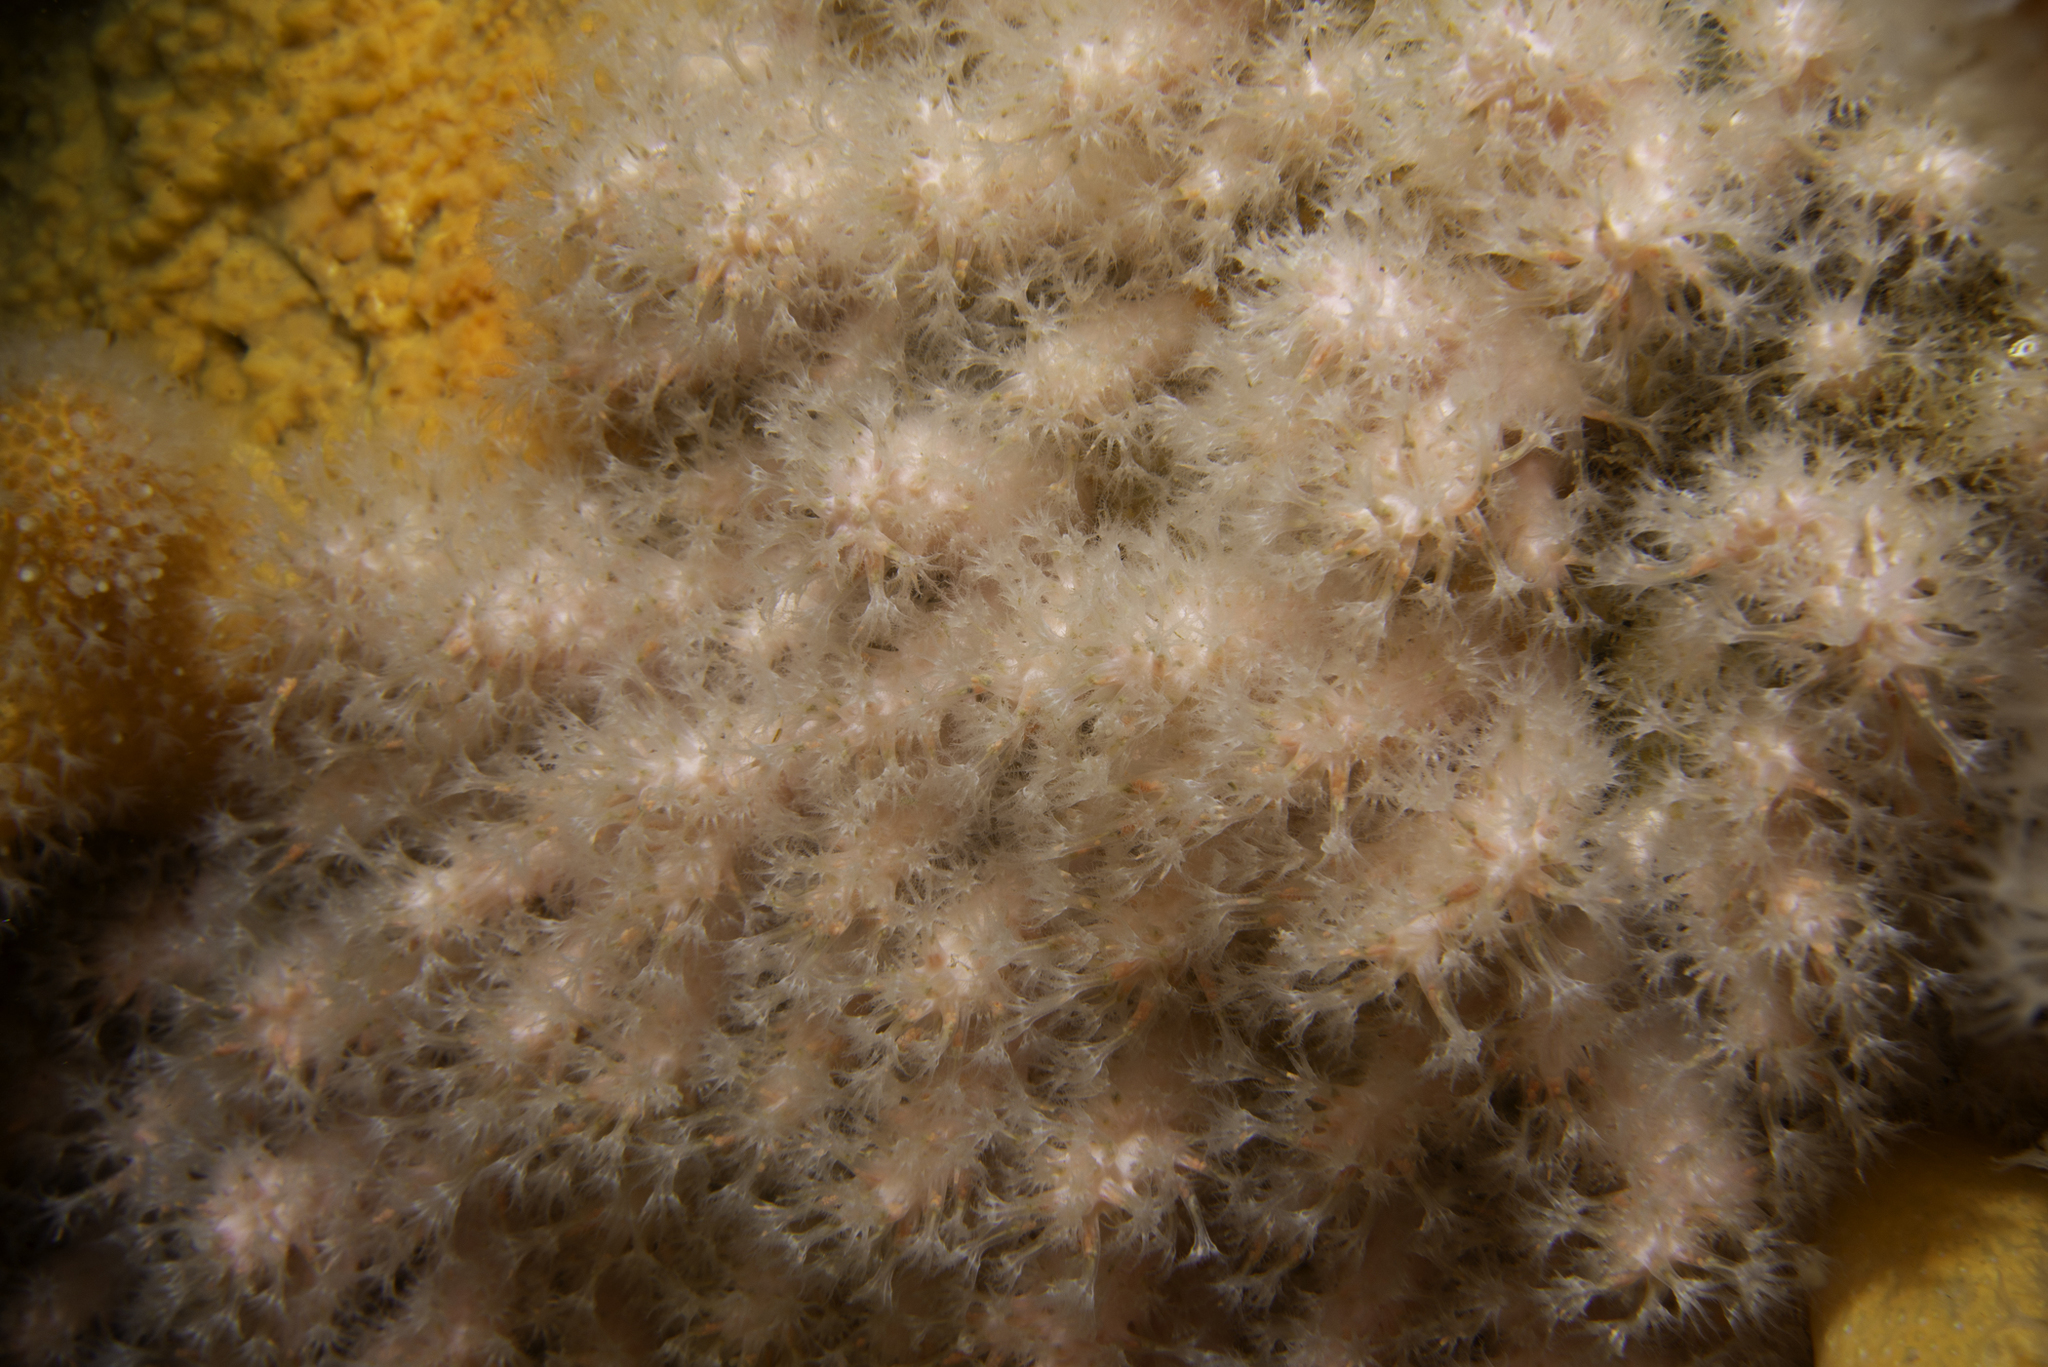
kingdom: Animalia
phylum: Cnidaria
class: Anthozoa
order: Malacalcyonacea
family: Alcyoniidae
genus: Alcyonium
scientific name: Alcyonium hibernicum
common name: Pink sea fingers
